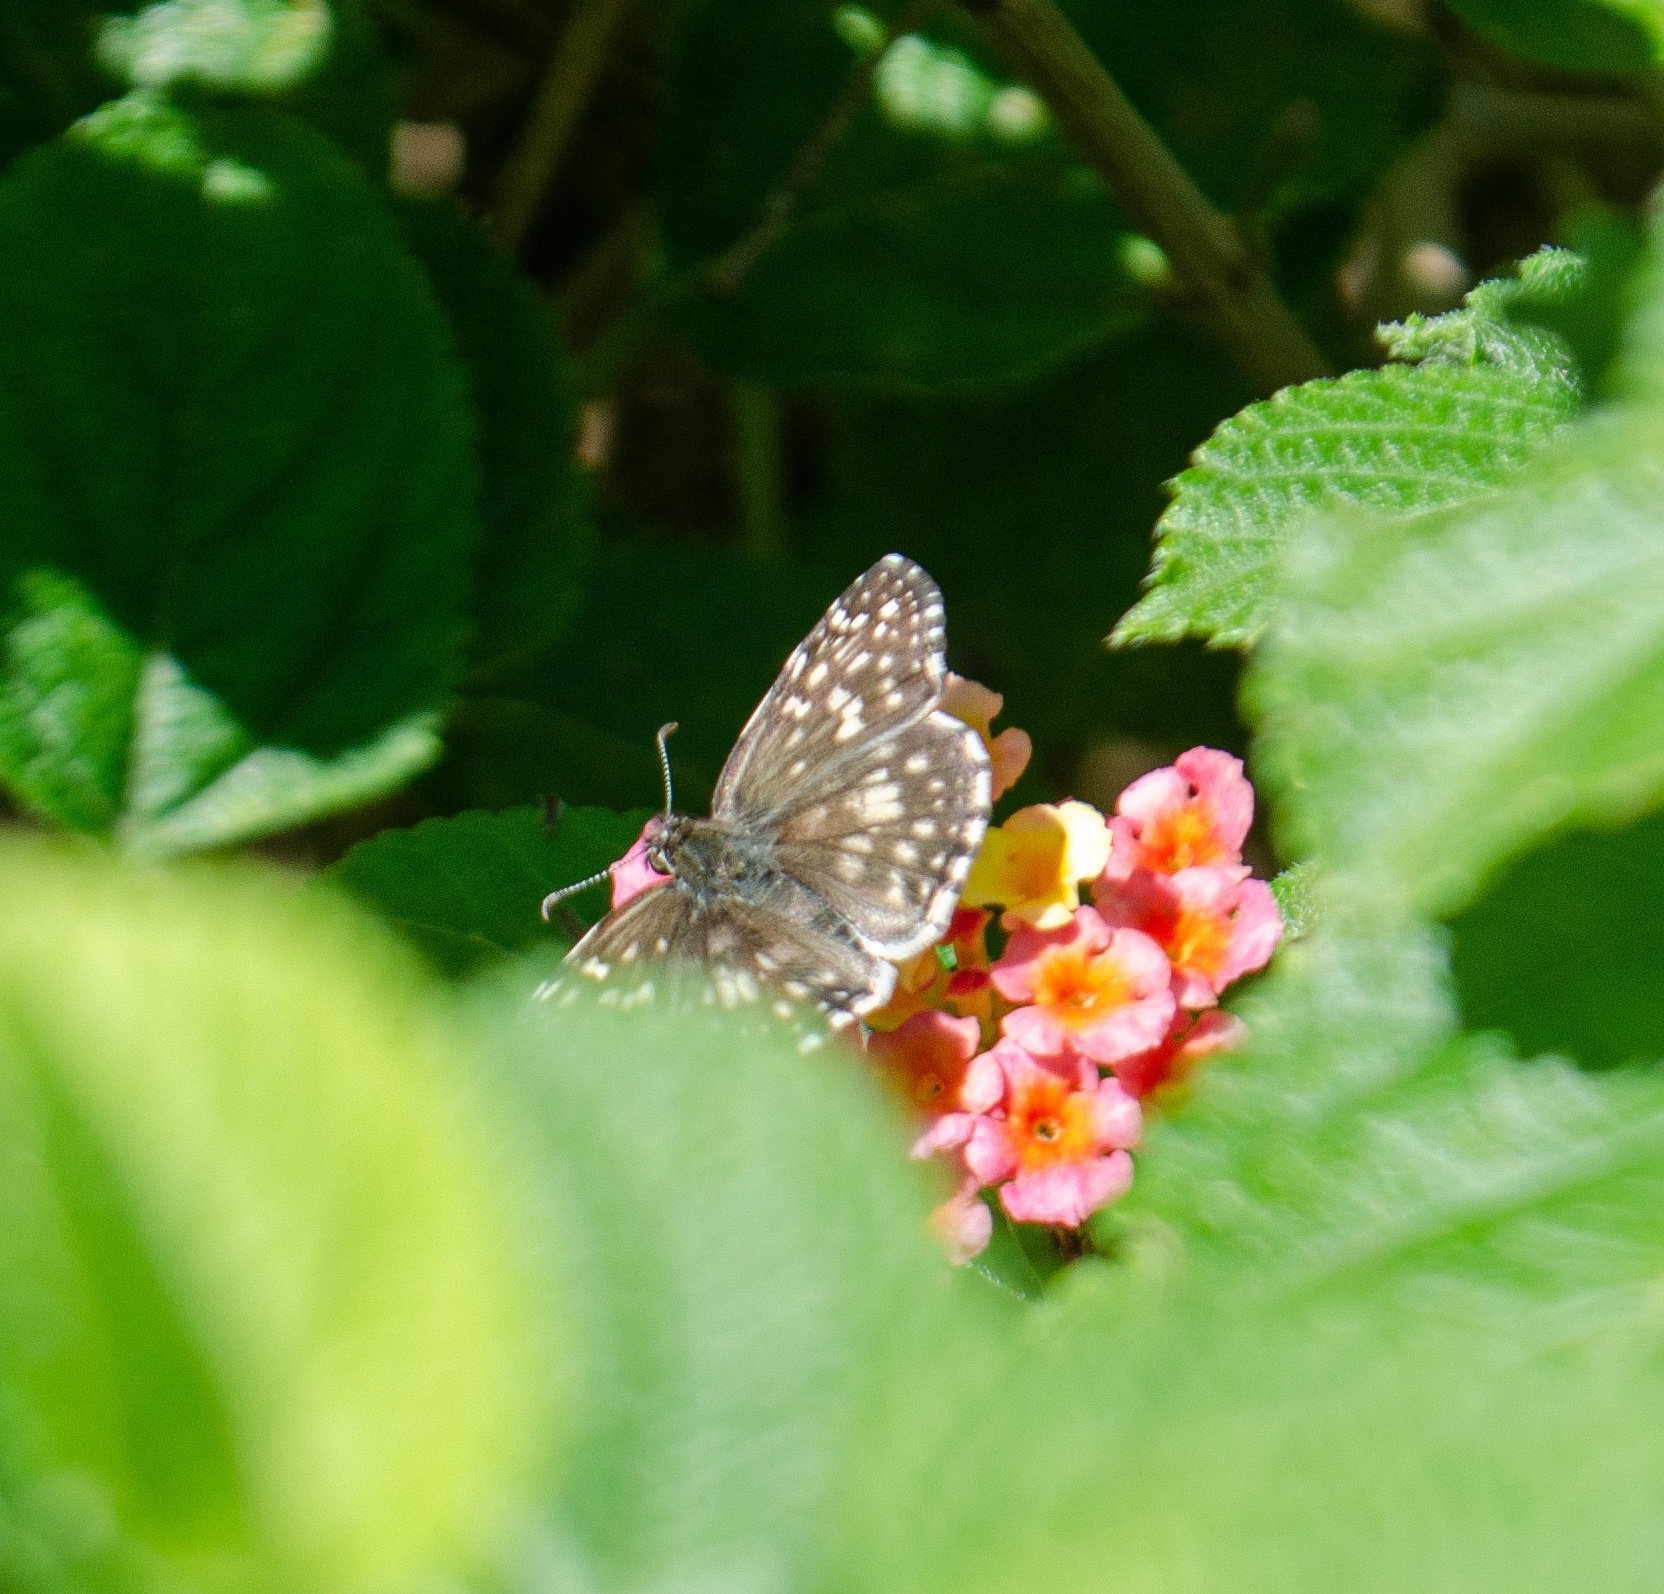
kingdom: Animalia
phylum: Arthropoda
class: Insecta
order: Lepidoptera
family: Hesperiidae
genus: Pyrgus
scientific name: Pyrgus oileus
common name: Tropical checkered-skipper
